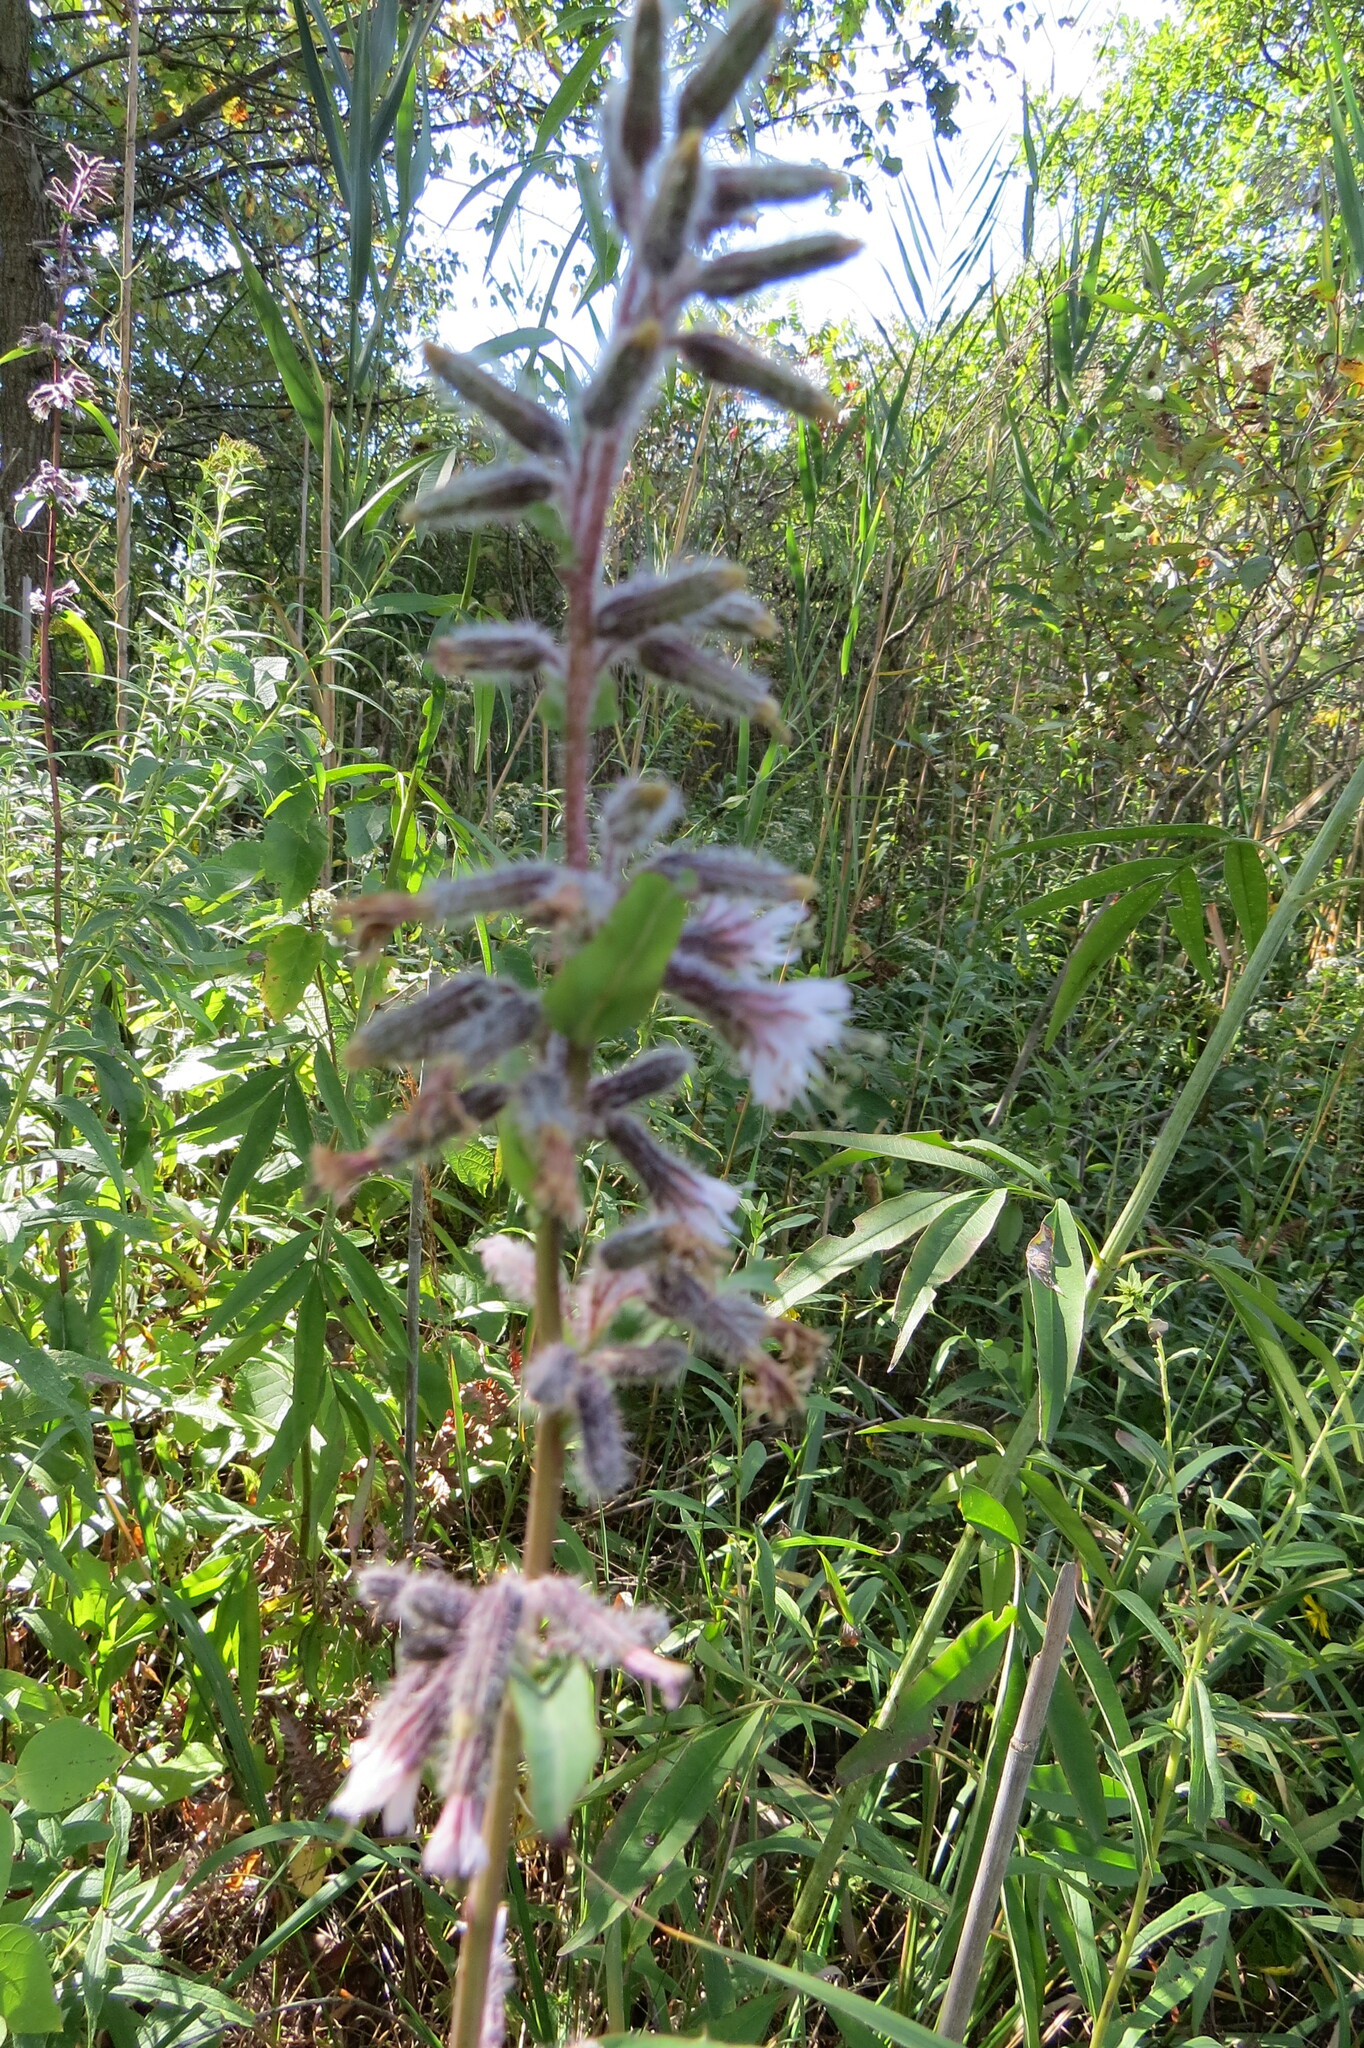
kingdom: Plantae
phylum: Tracheophyta
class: Magnoliopsida
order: Asterales
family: Asteraceae
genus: Nabalus
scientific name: Nabalus racemosus
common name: Glaucous white lettuce
